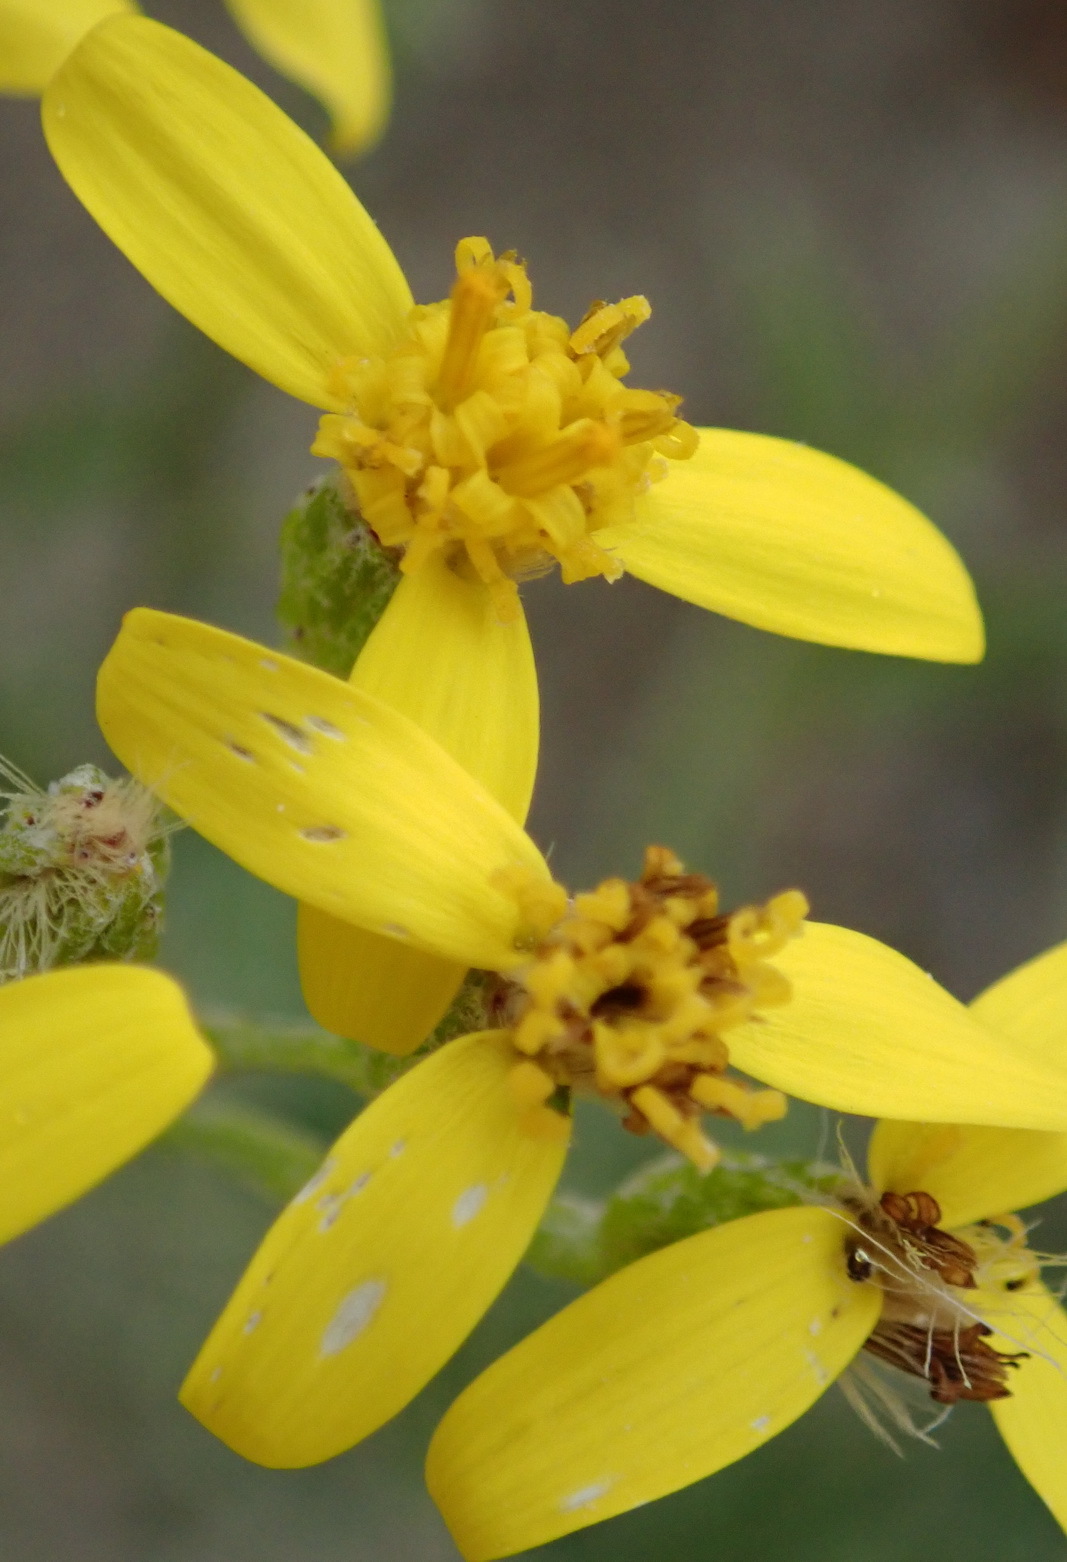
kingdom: Plantae
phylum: Tracheophyta
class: Magnoliopsida
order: Asterales
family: Asteraceae
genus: Senecio
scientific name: Senecio crenatus
